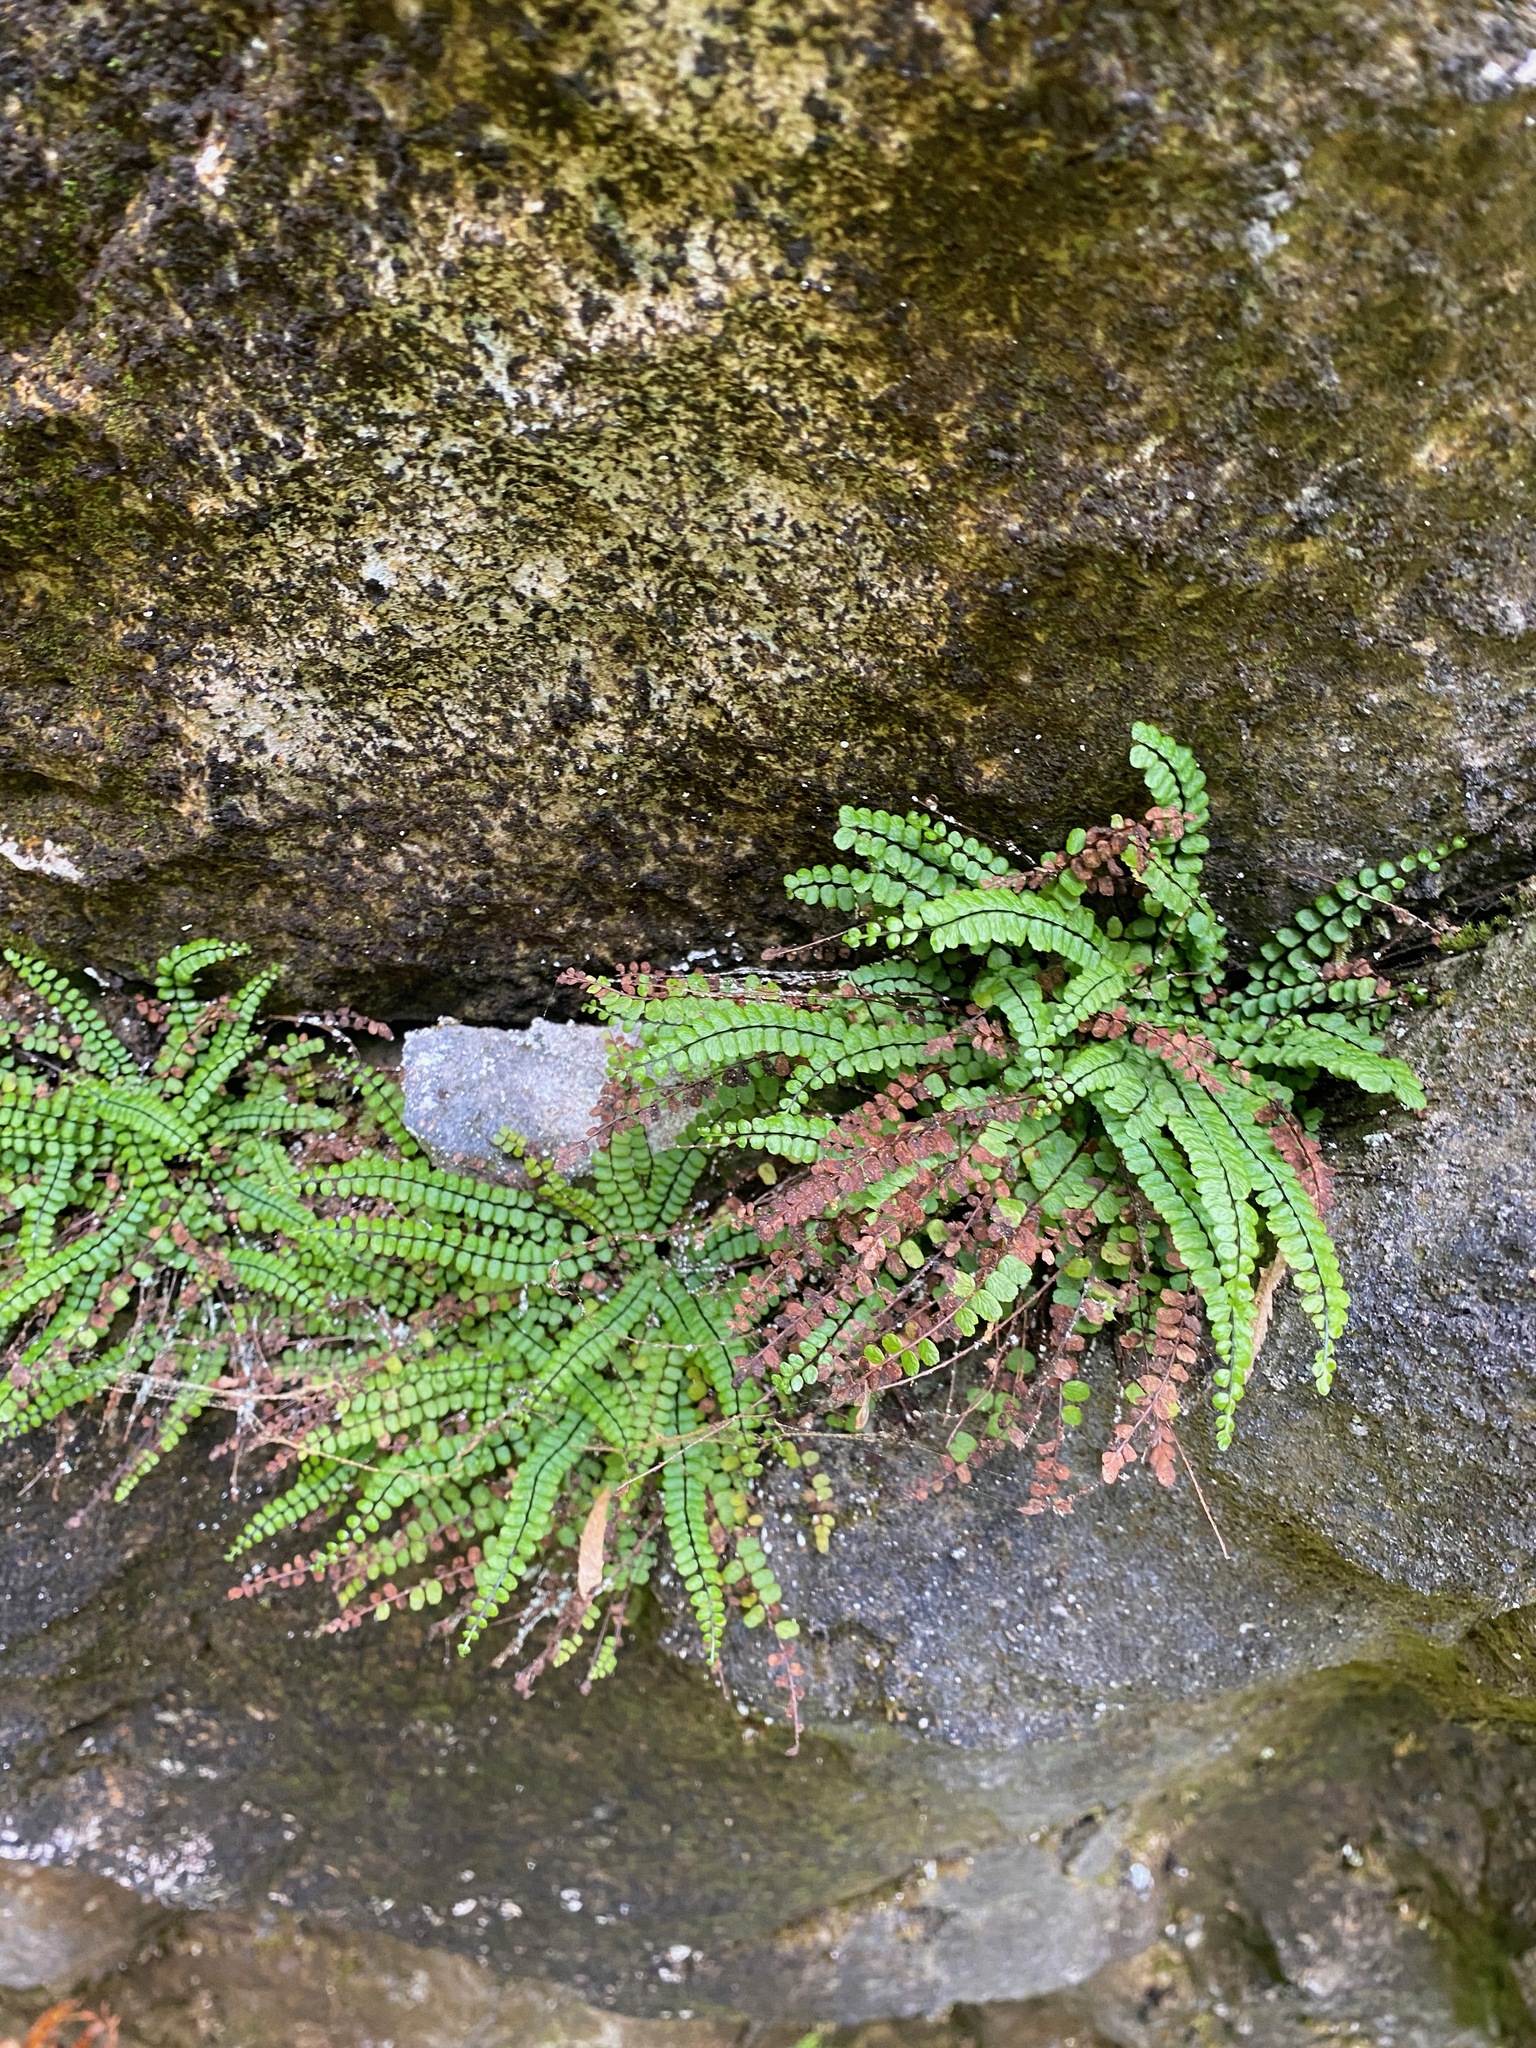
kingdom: Plantae
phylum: Tracheophyta
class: Polypodiopsida
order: Polypodiales
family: Aspleniaceae
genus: Asplenium
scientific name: Asplenium trichomanes
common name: Maidenhair spleenwort
